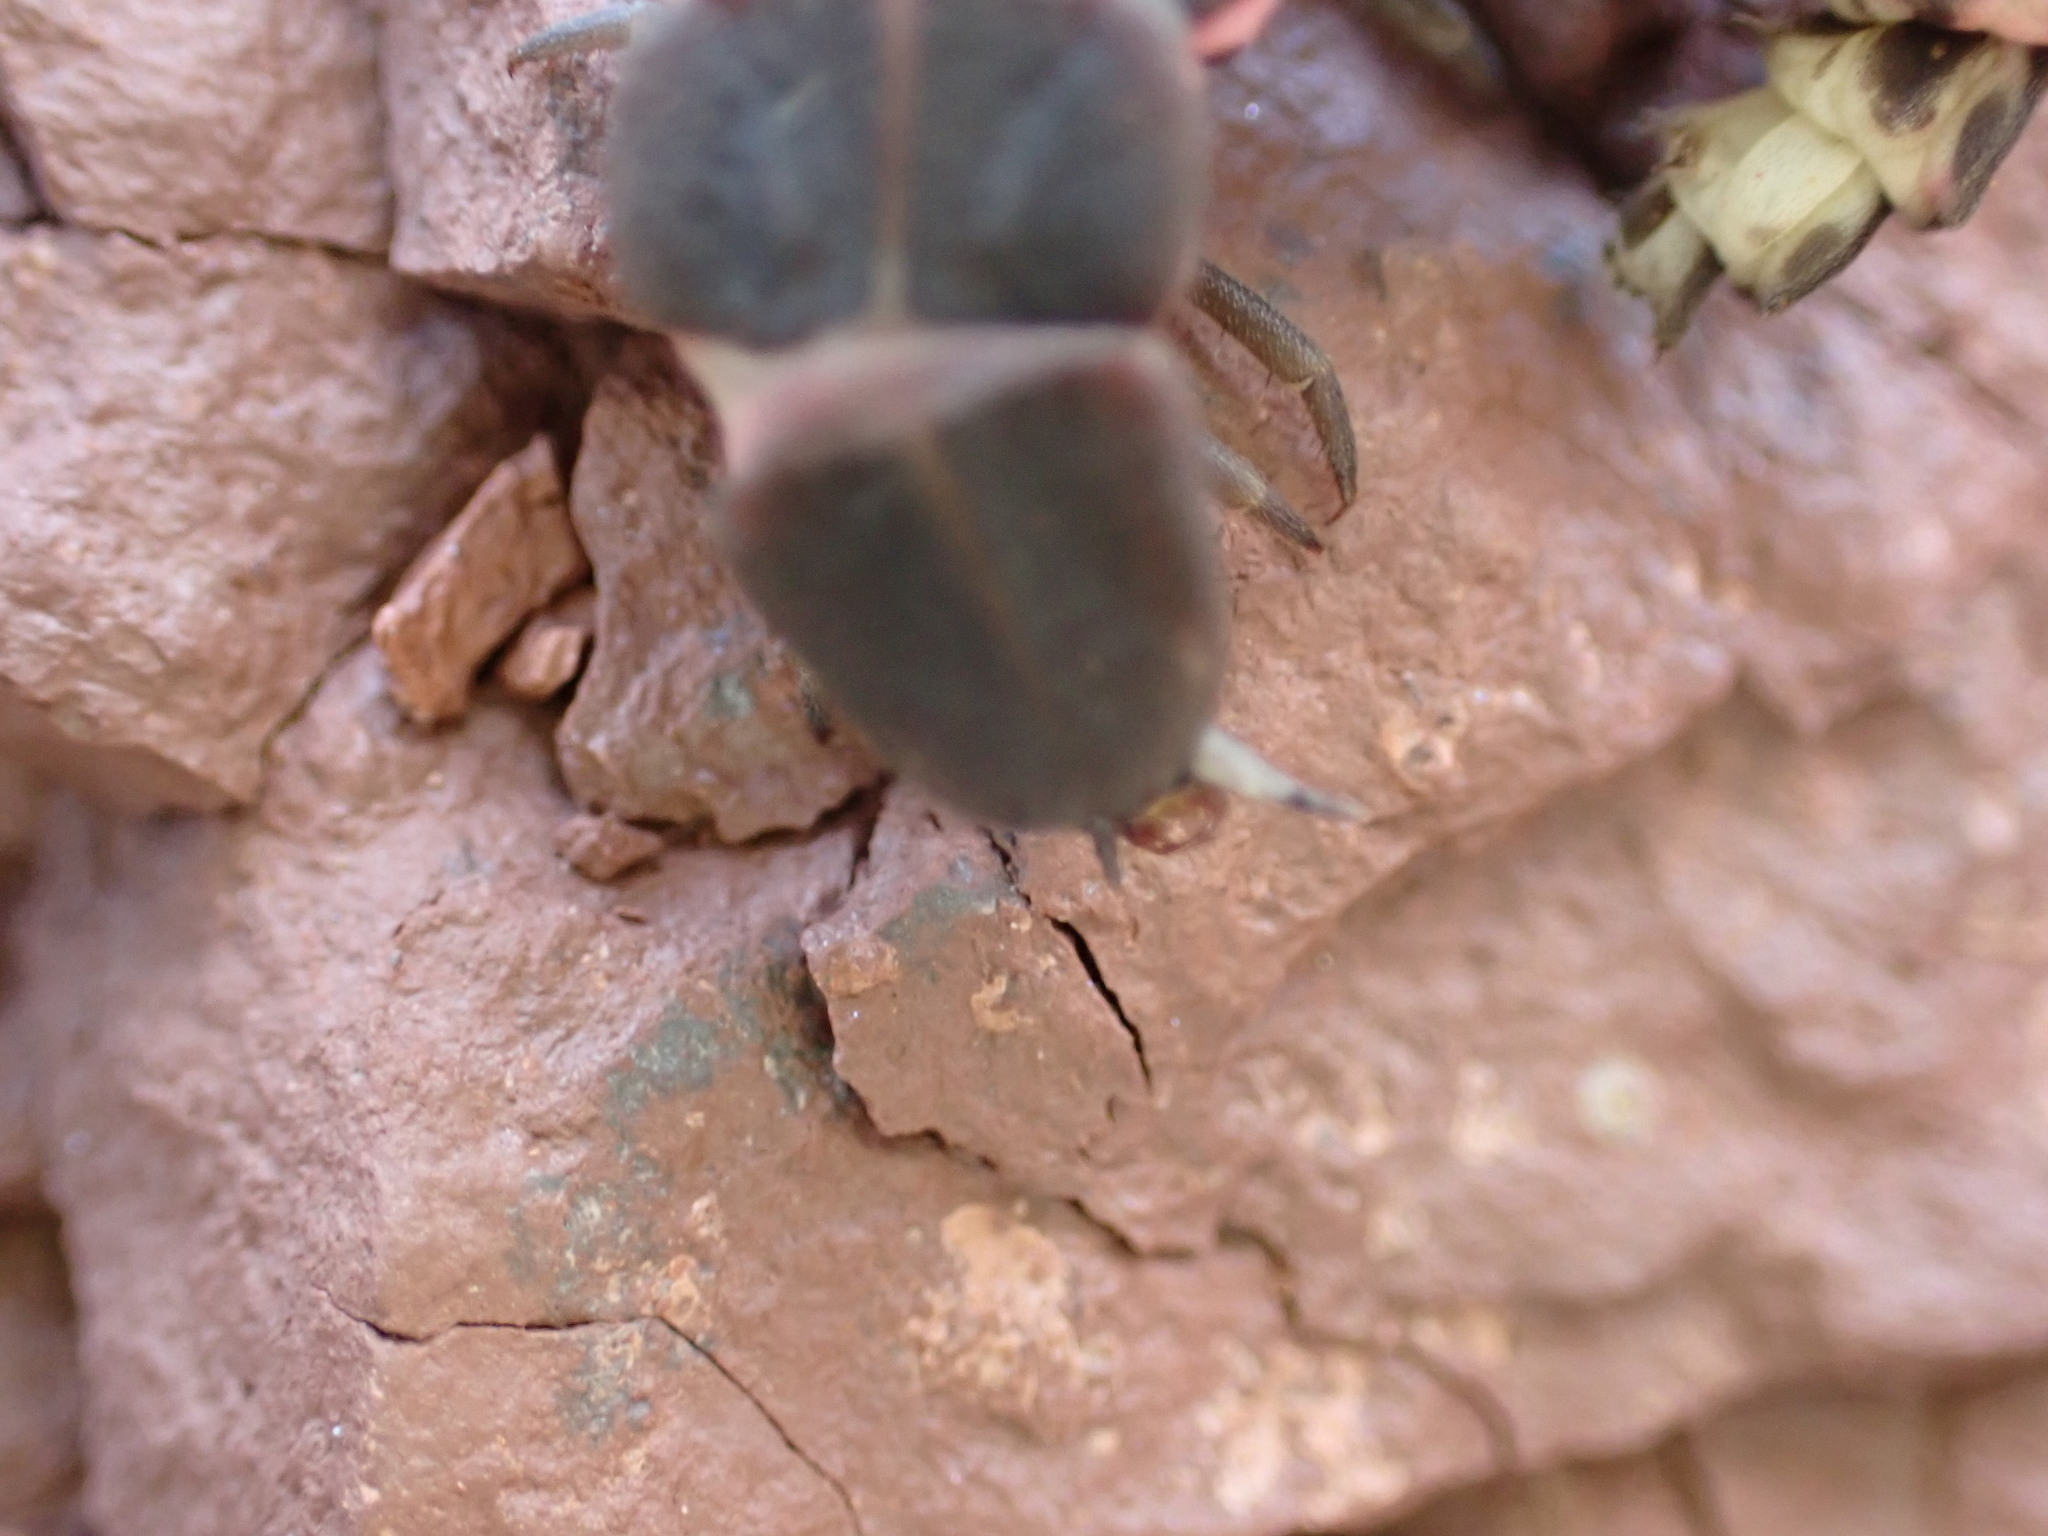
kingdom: Animalia
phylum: Arthropoda
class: Insecta
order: Coleoptera
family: Lampyridae
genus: Nyctophila
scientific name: Nyctophila reichii
